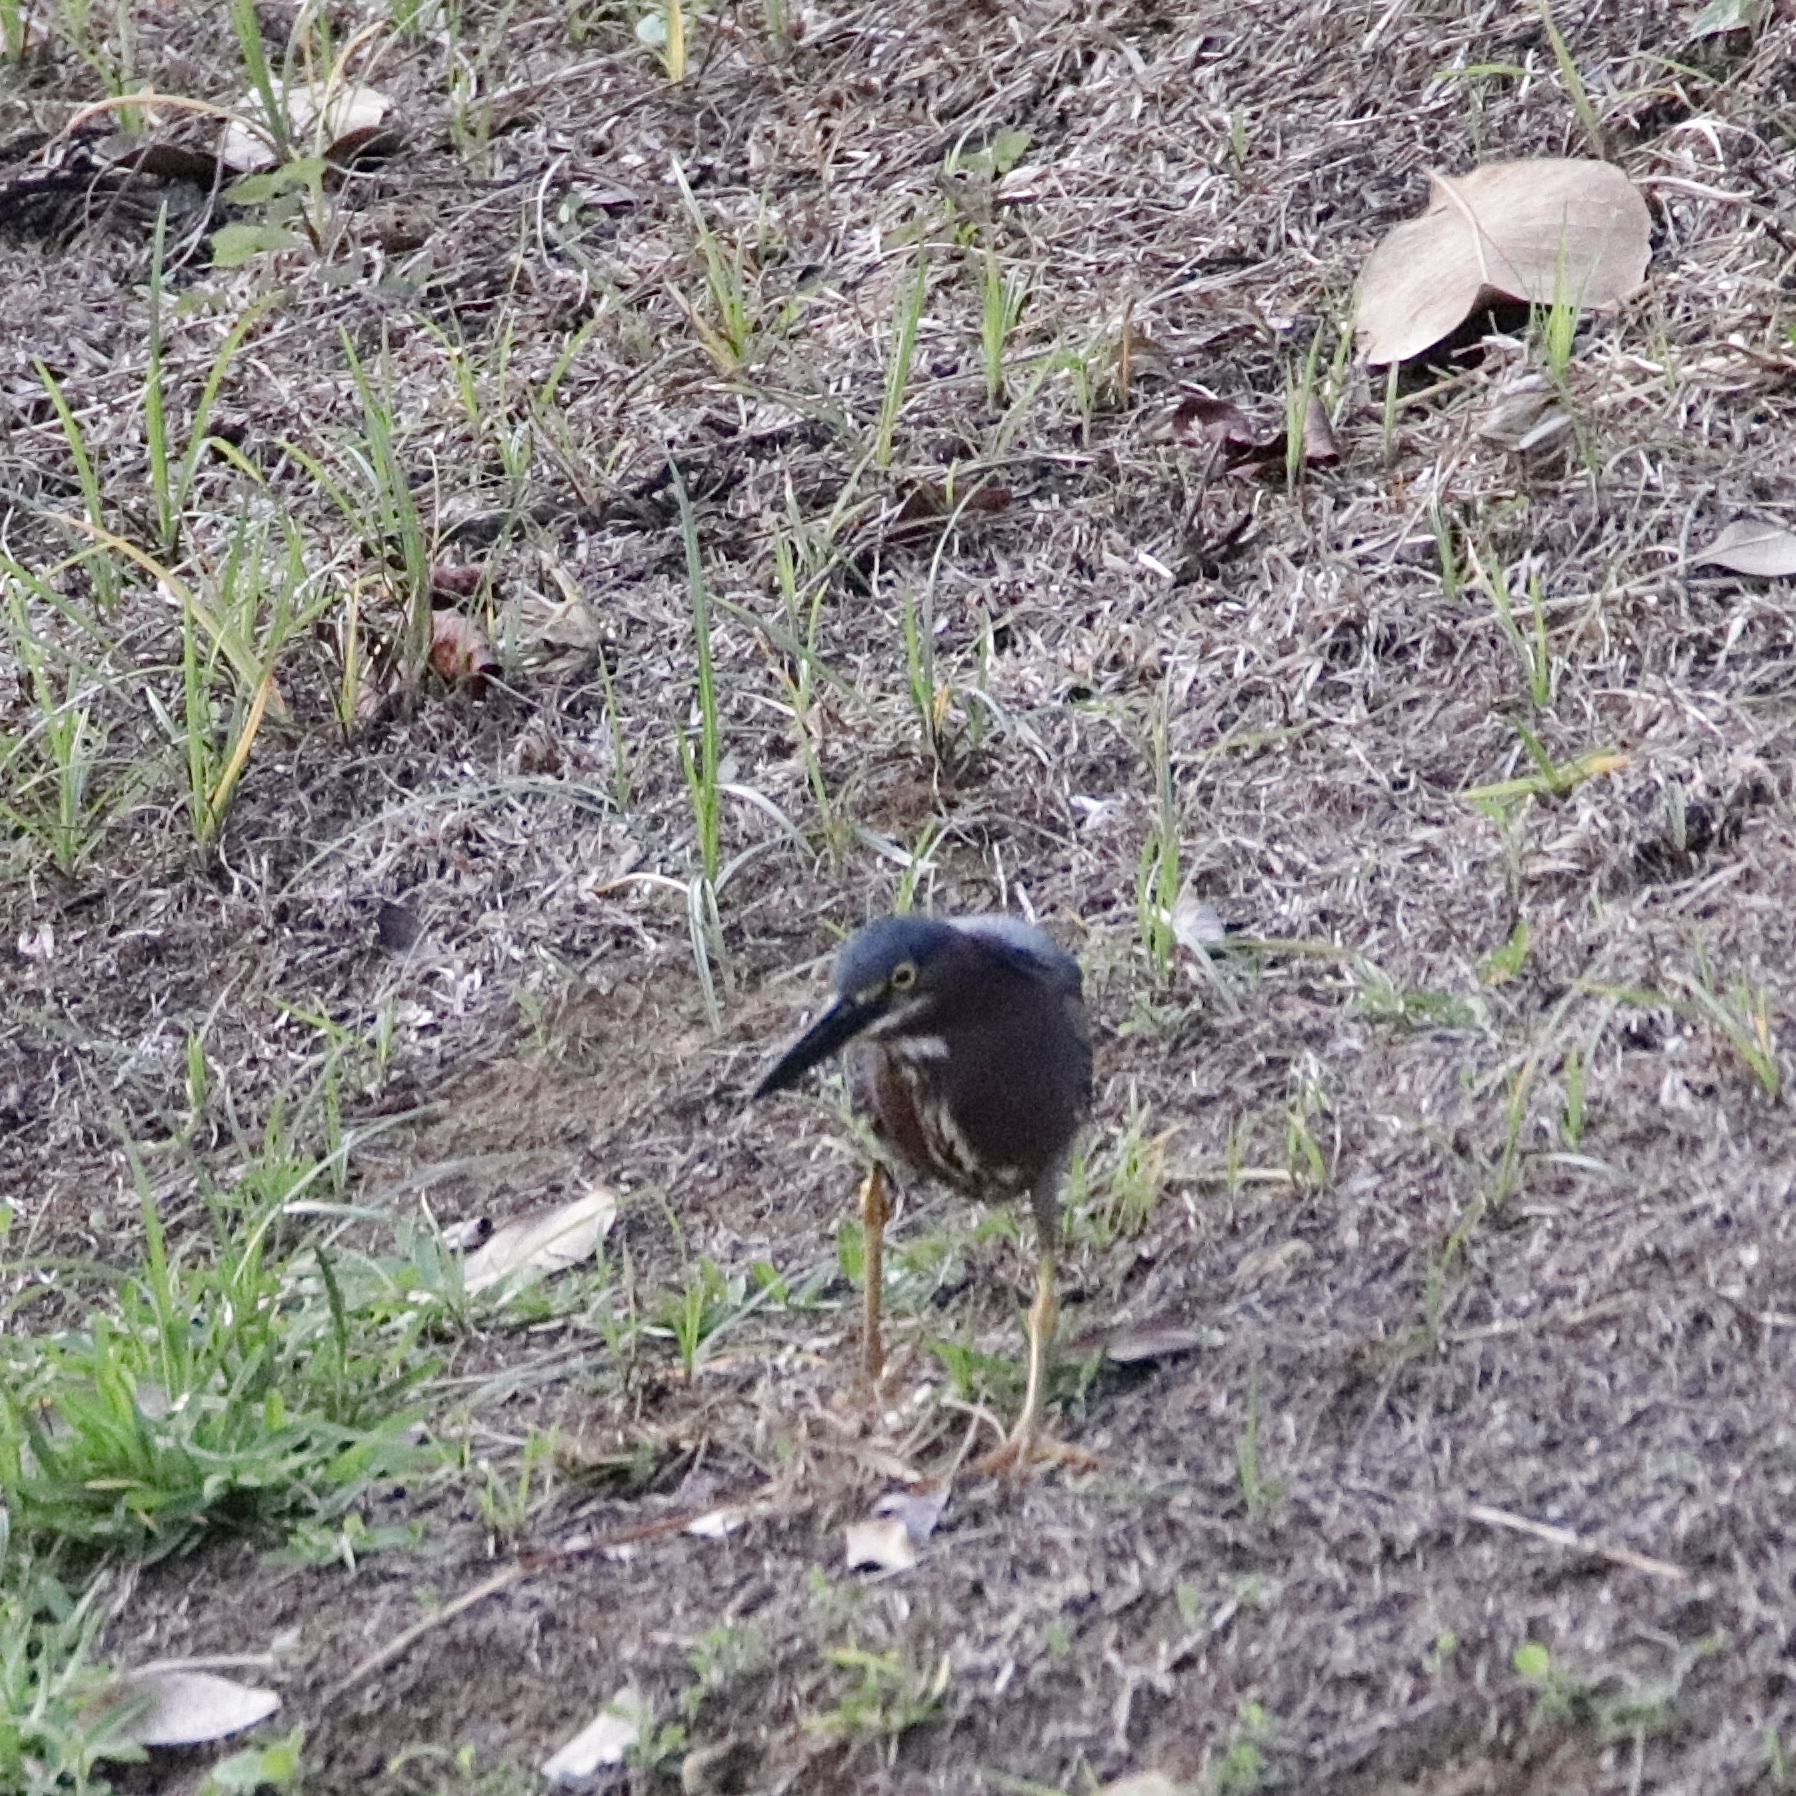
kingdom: Animalia
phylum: Chordata
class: Aves
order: Pelecaniformes
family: Ardeidae
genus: Butorides
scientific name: Butorides virescens
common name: Green heron
